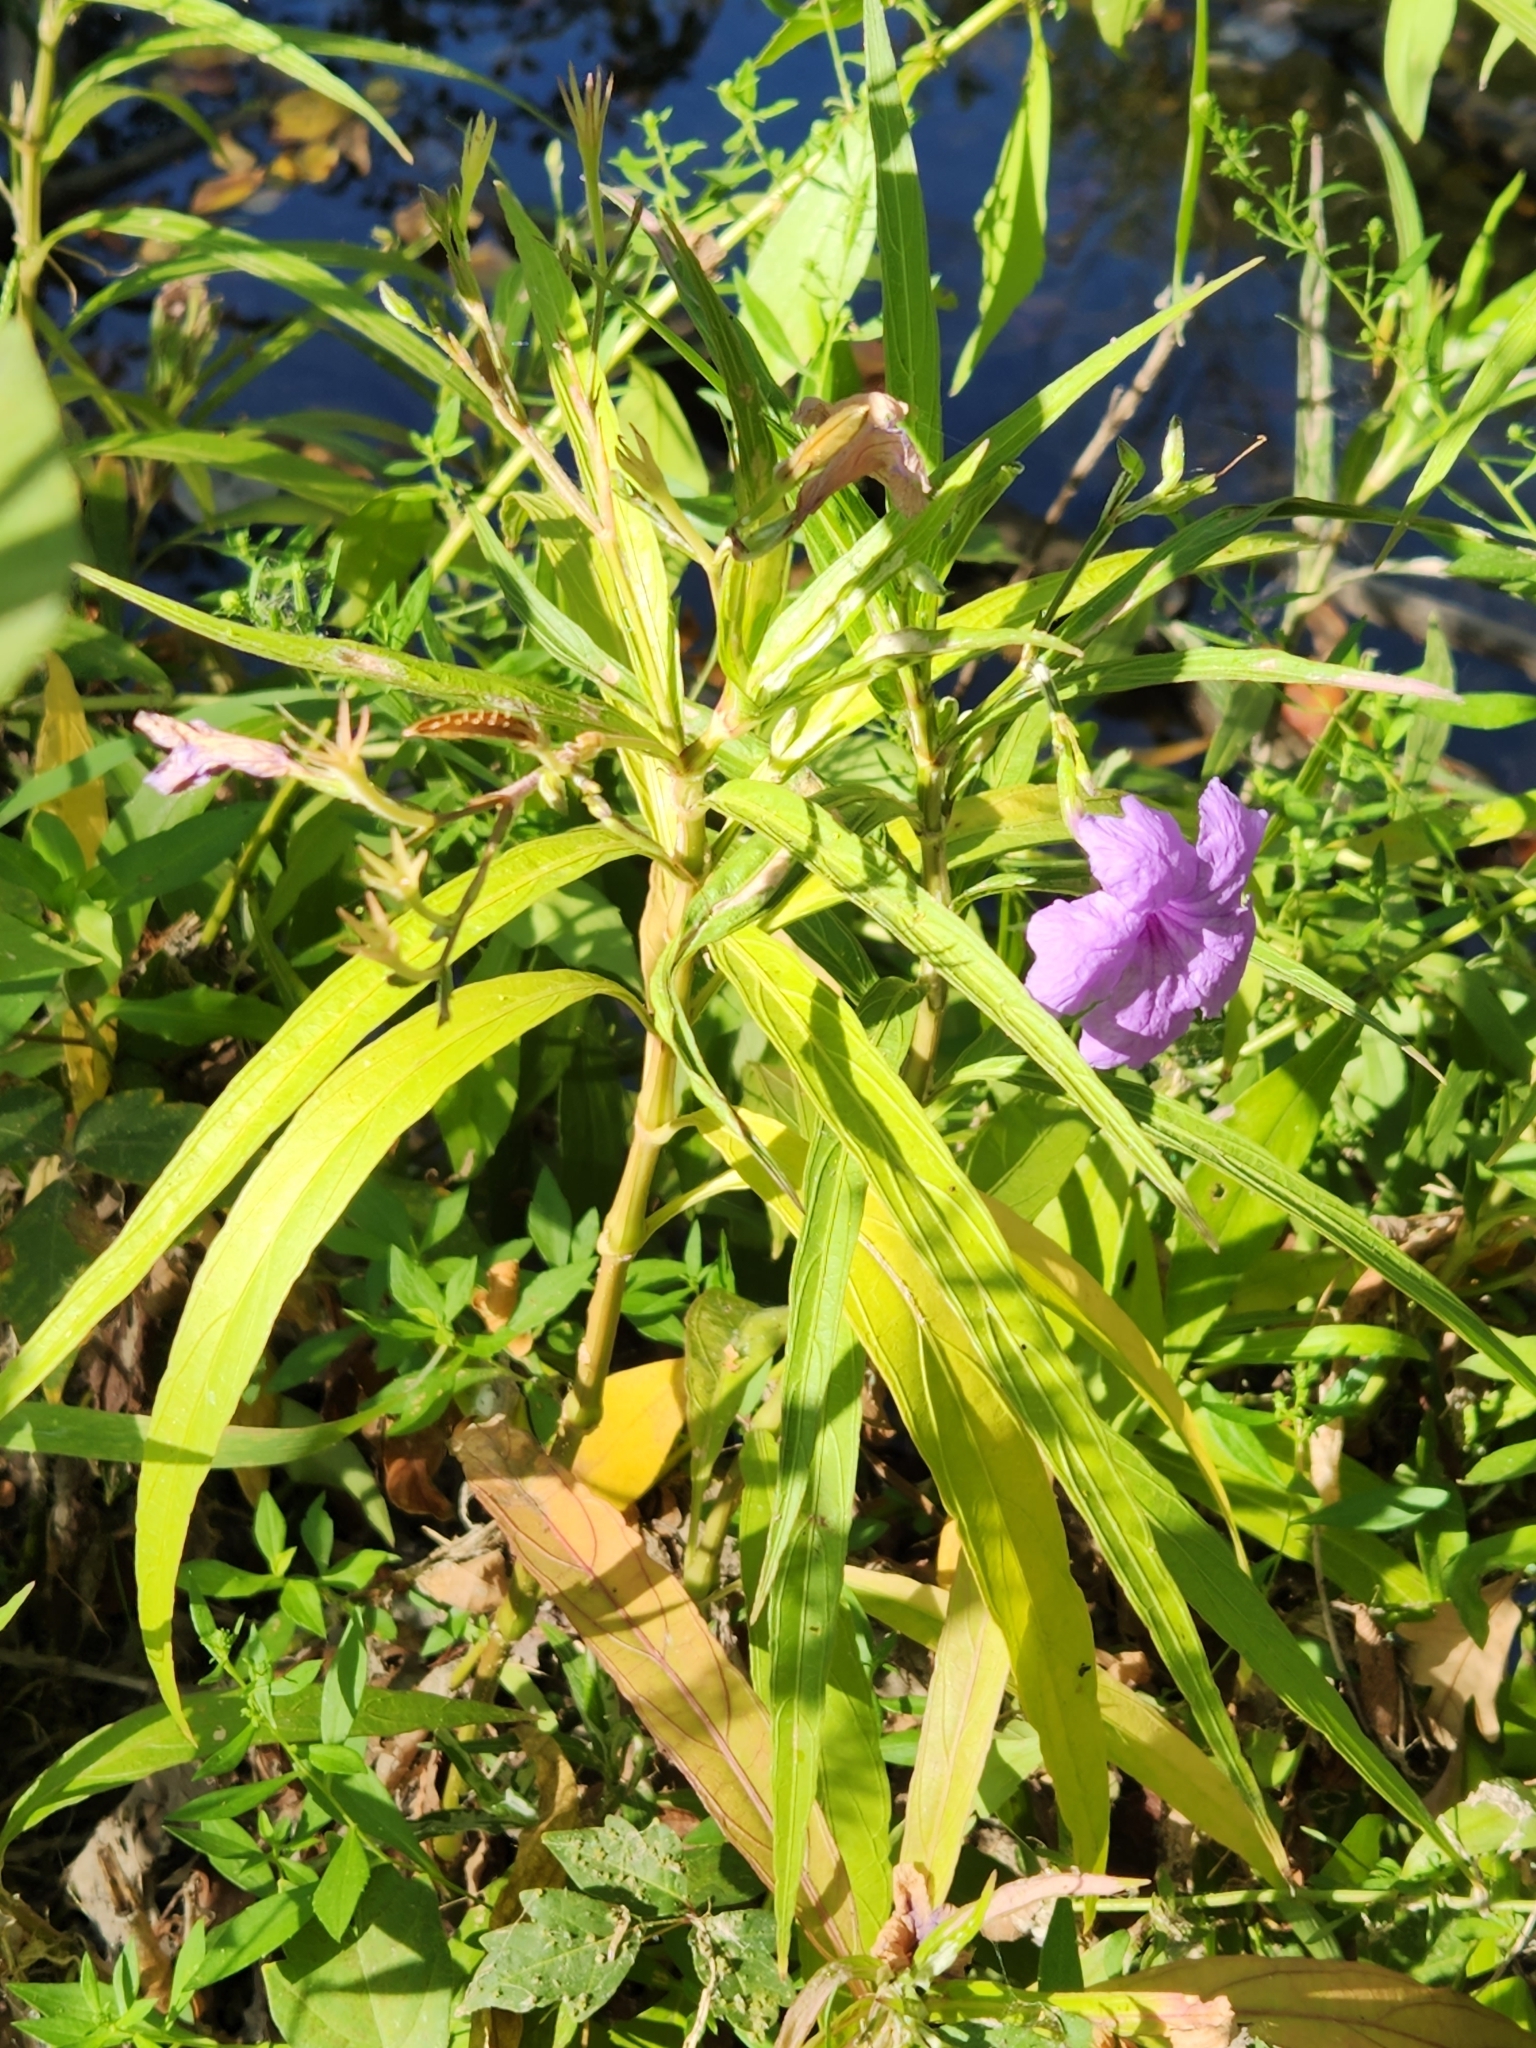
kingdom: Plantae
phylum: Tracheophyta
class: Magnoliopsida
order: Lamiales
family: Acanthaceae
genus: Ruellia
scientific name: Ruellia simplex
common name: Softseed wild petunia
